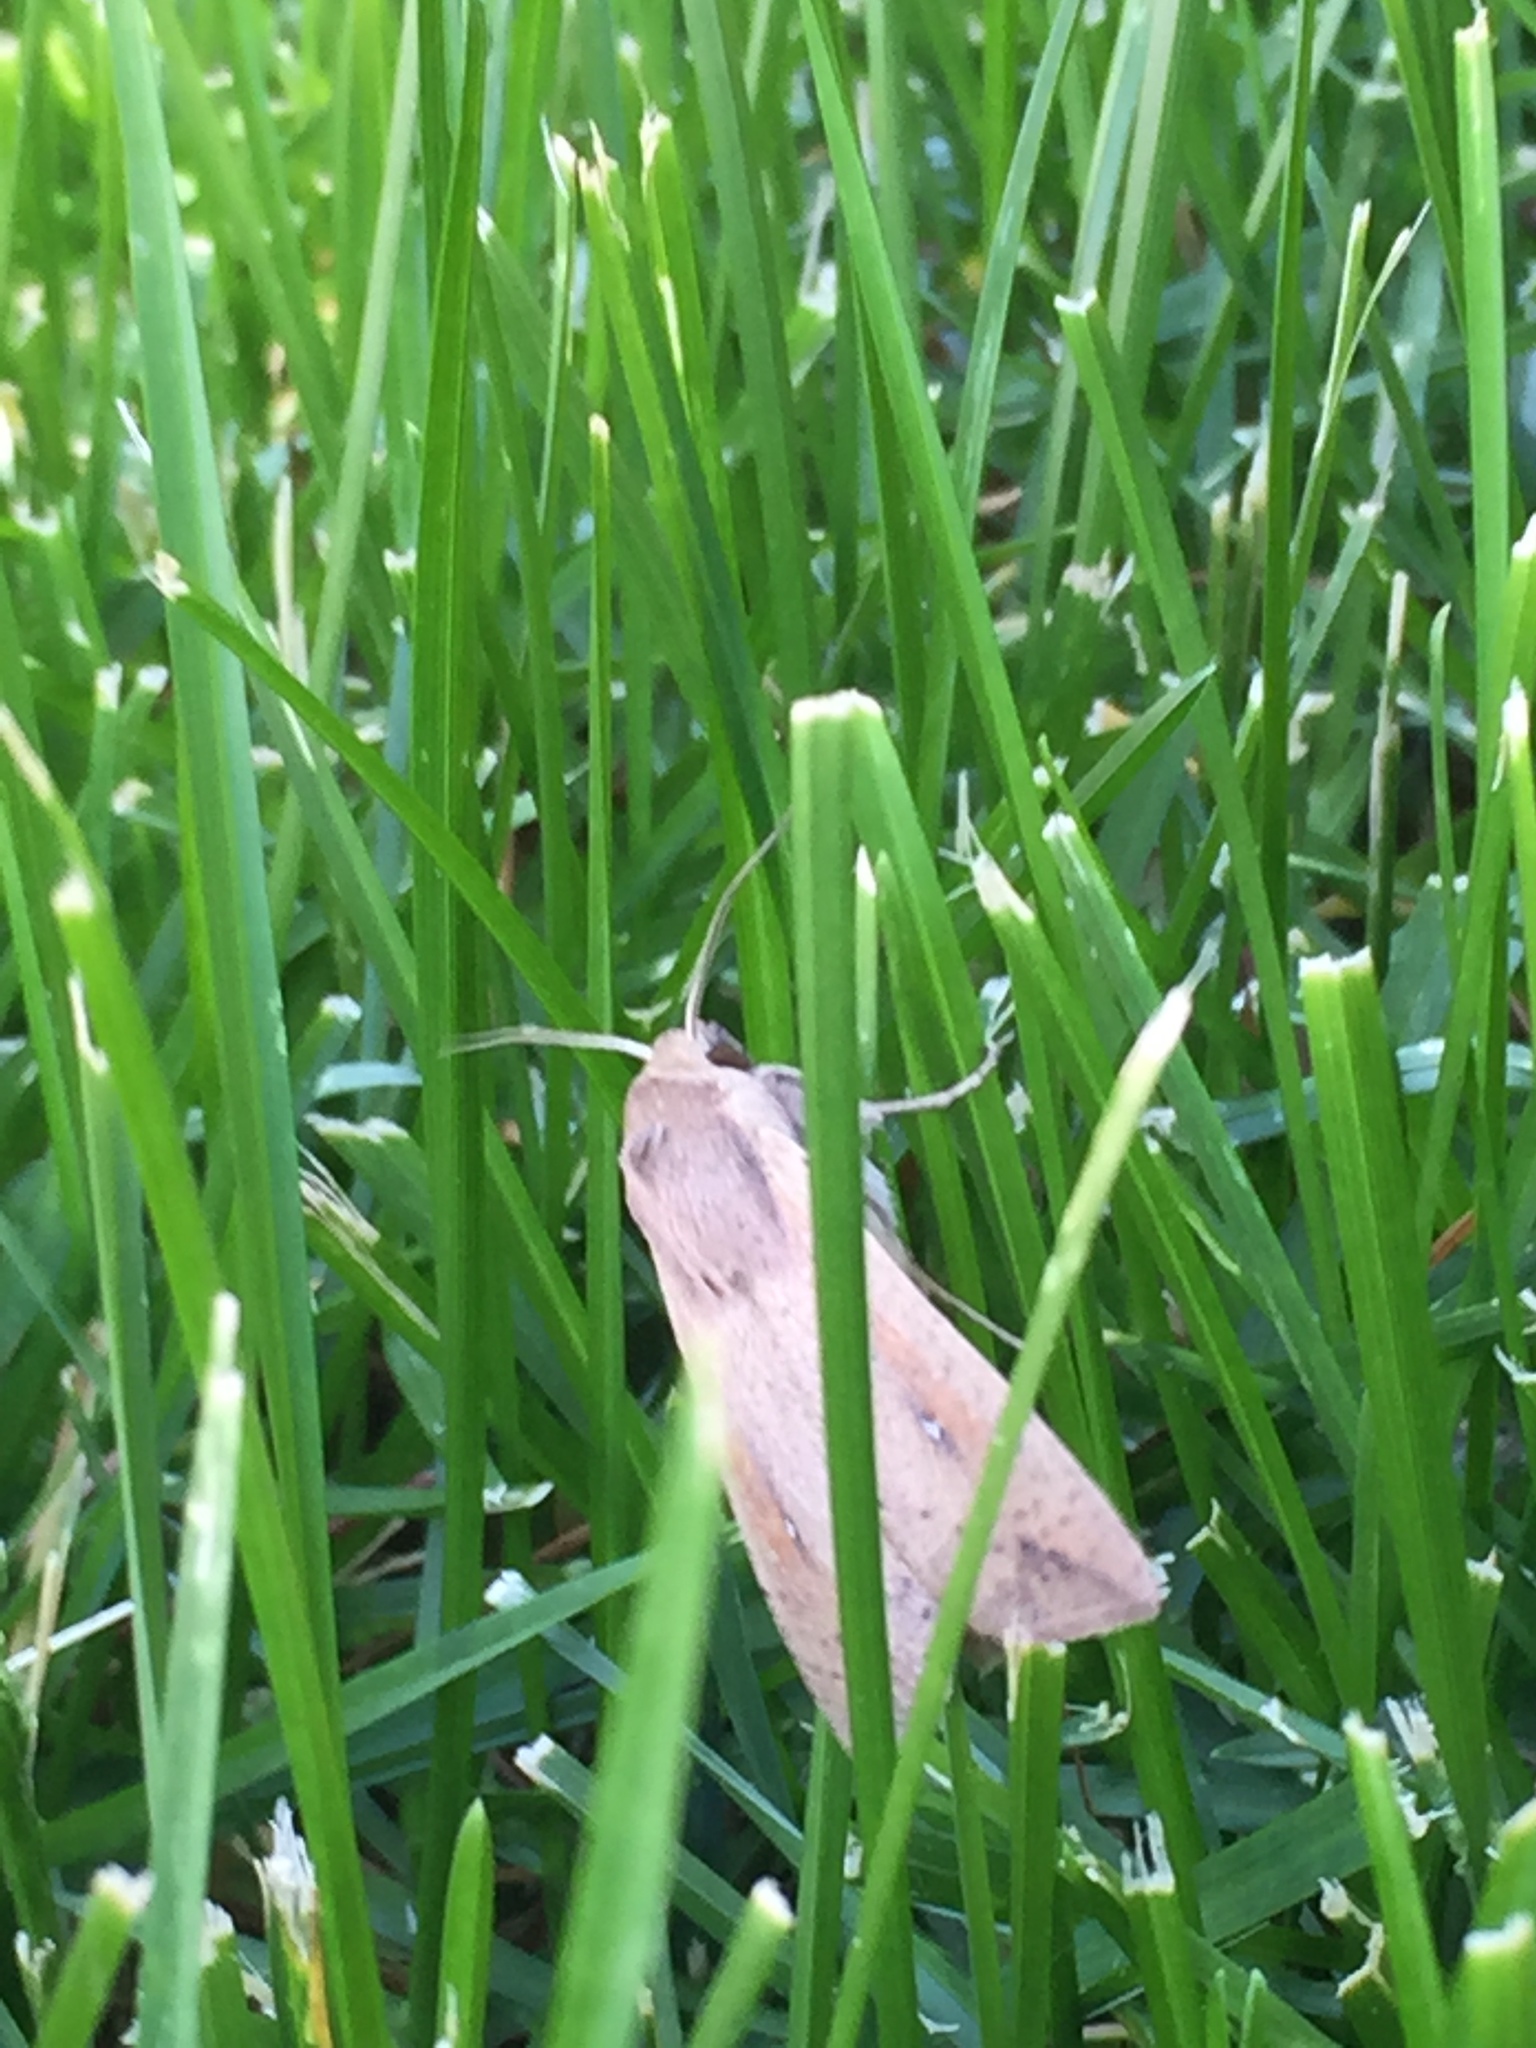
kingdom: Animalia
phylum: Arthropoda
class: Insecta
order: Lepidoptera
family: Noctuidae
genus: Mythimna
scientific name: Mythimna unipuncta
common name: White-speck
